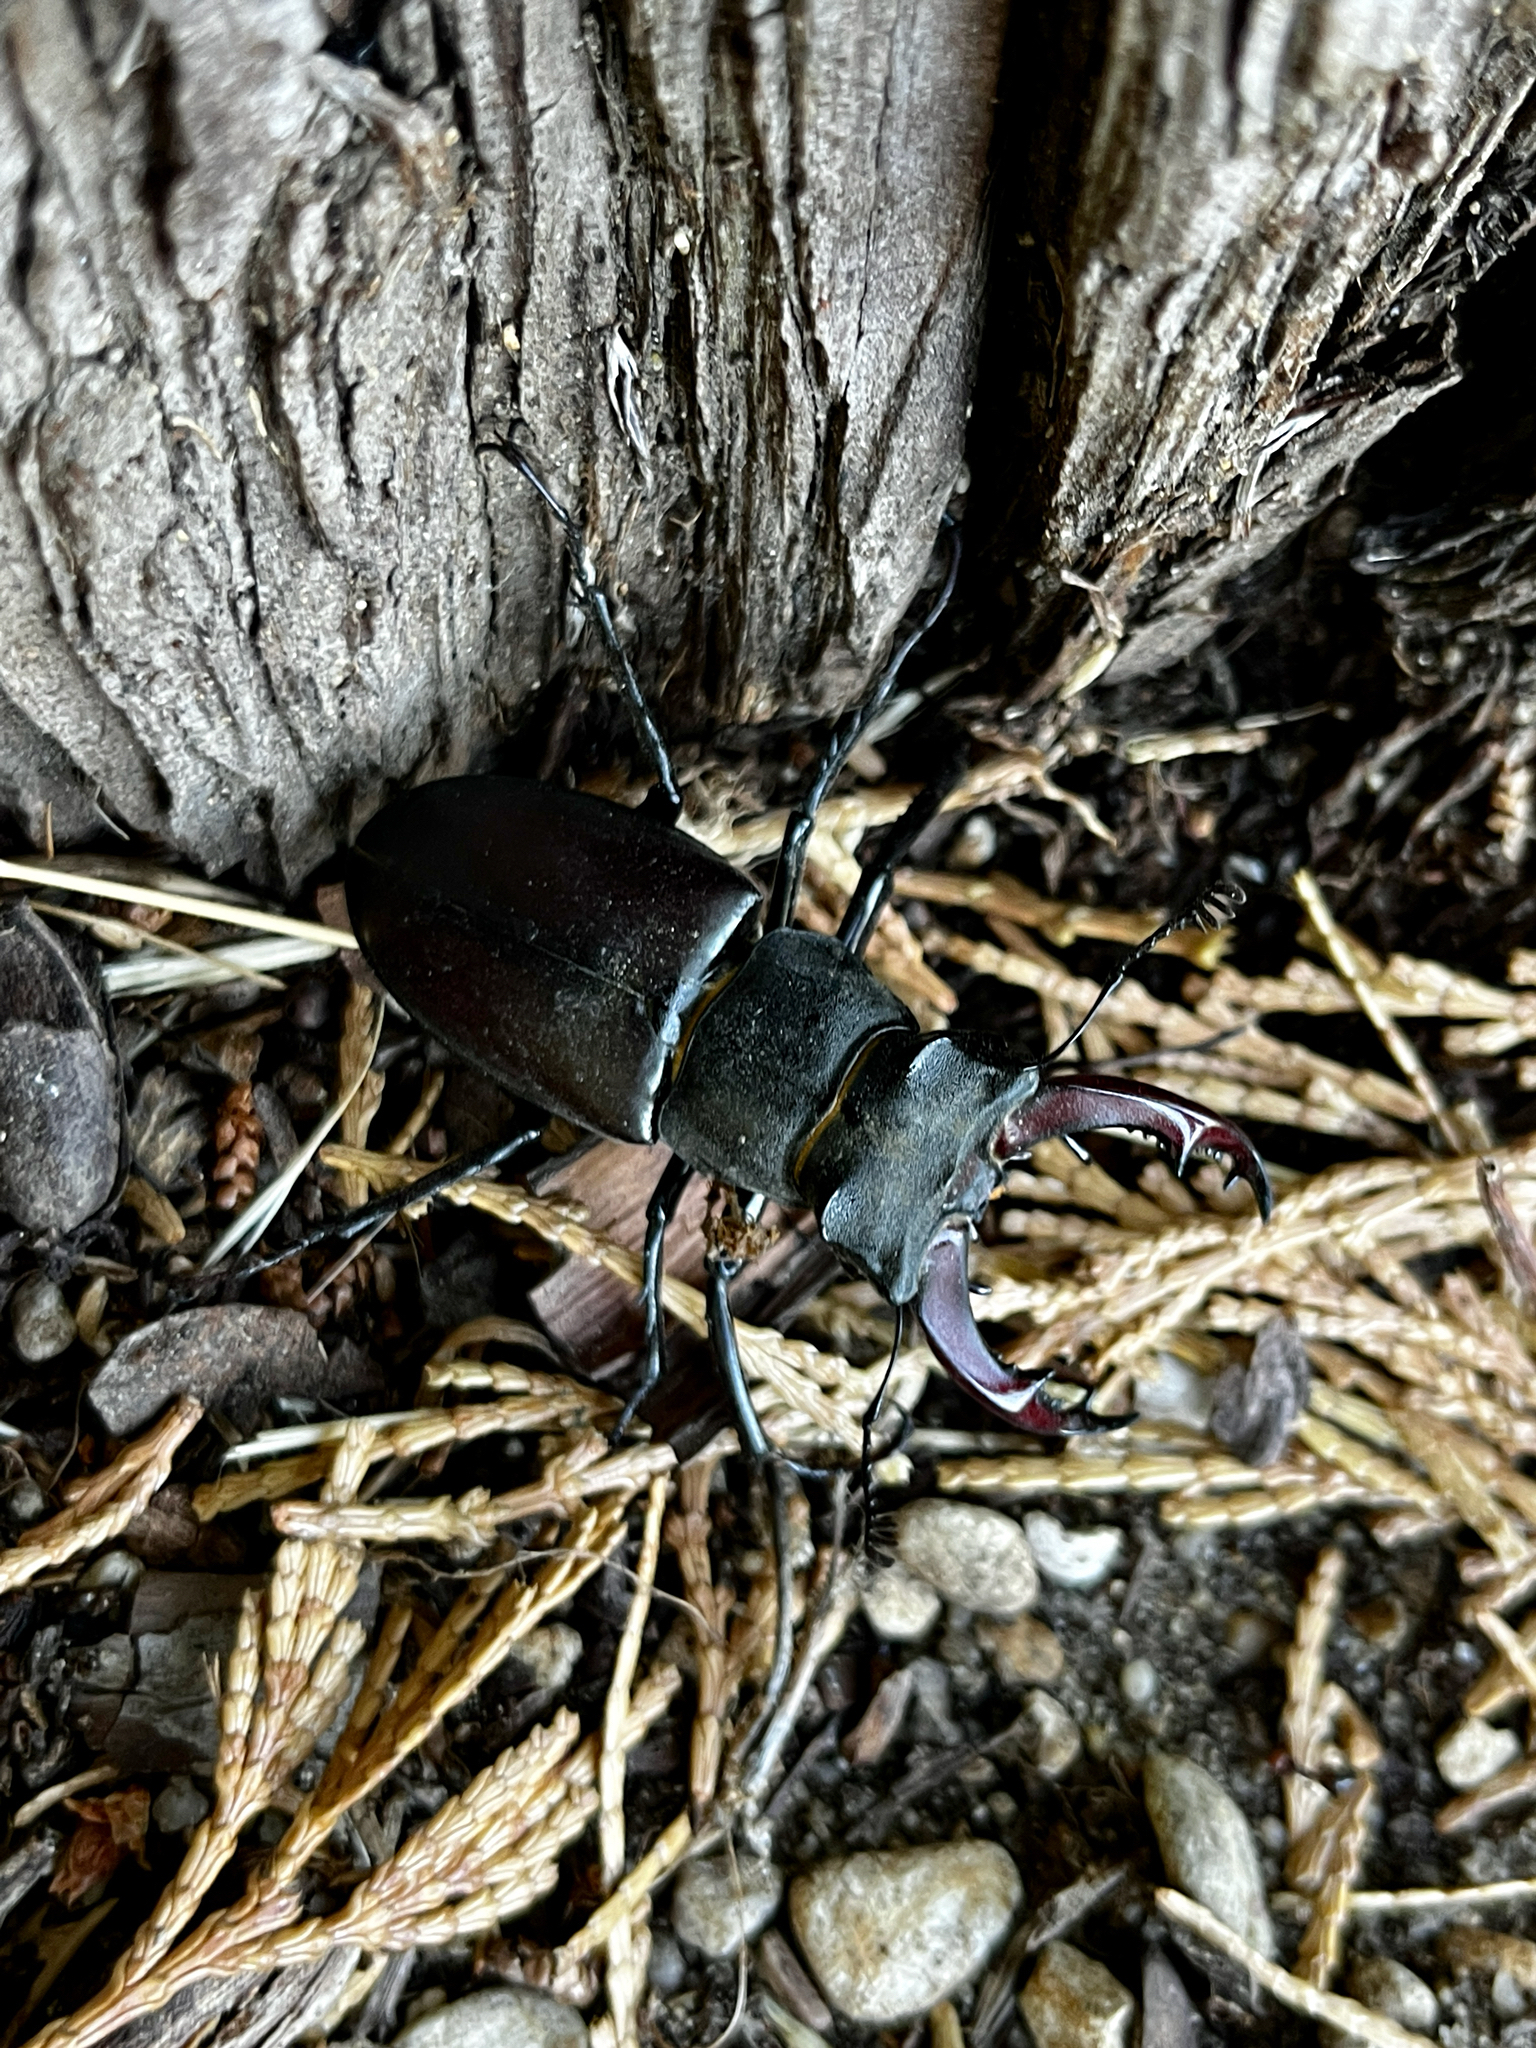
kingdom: Animalia
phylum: Arthropoda
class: Insecta
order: Coleoptera
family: Lucanidae
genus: Lucanus
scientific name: Lucanus cervus
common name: Stag beetle
